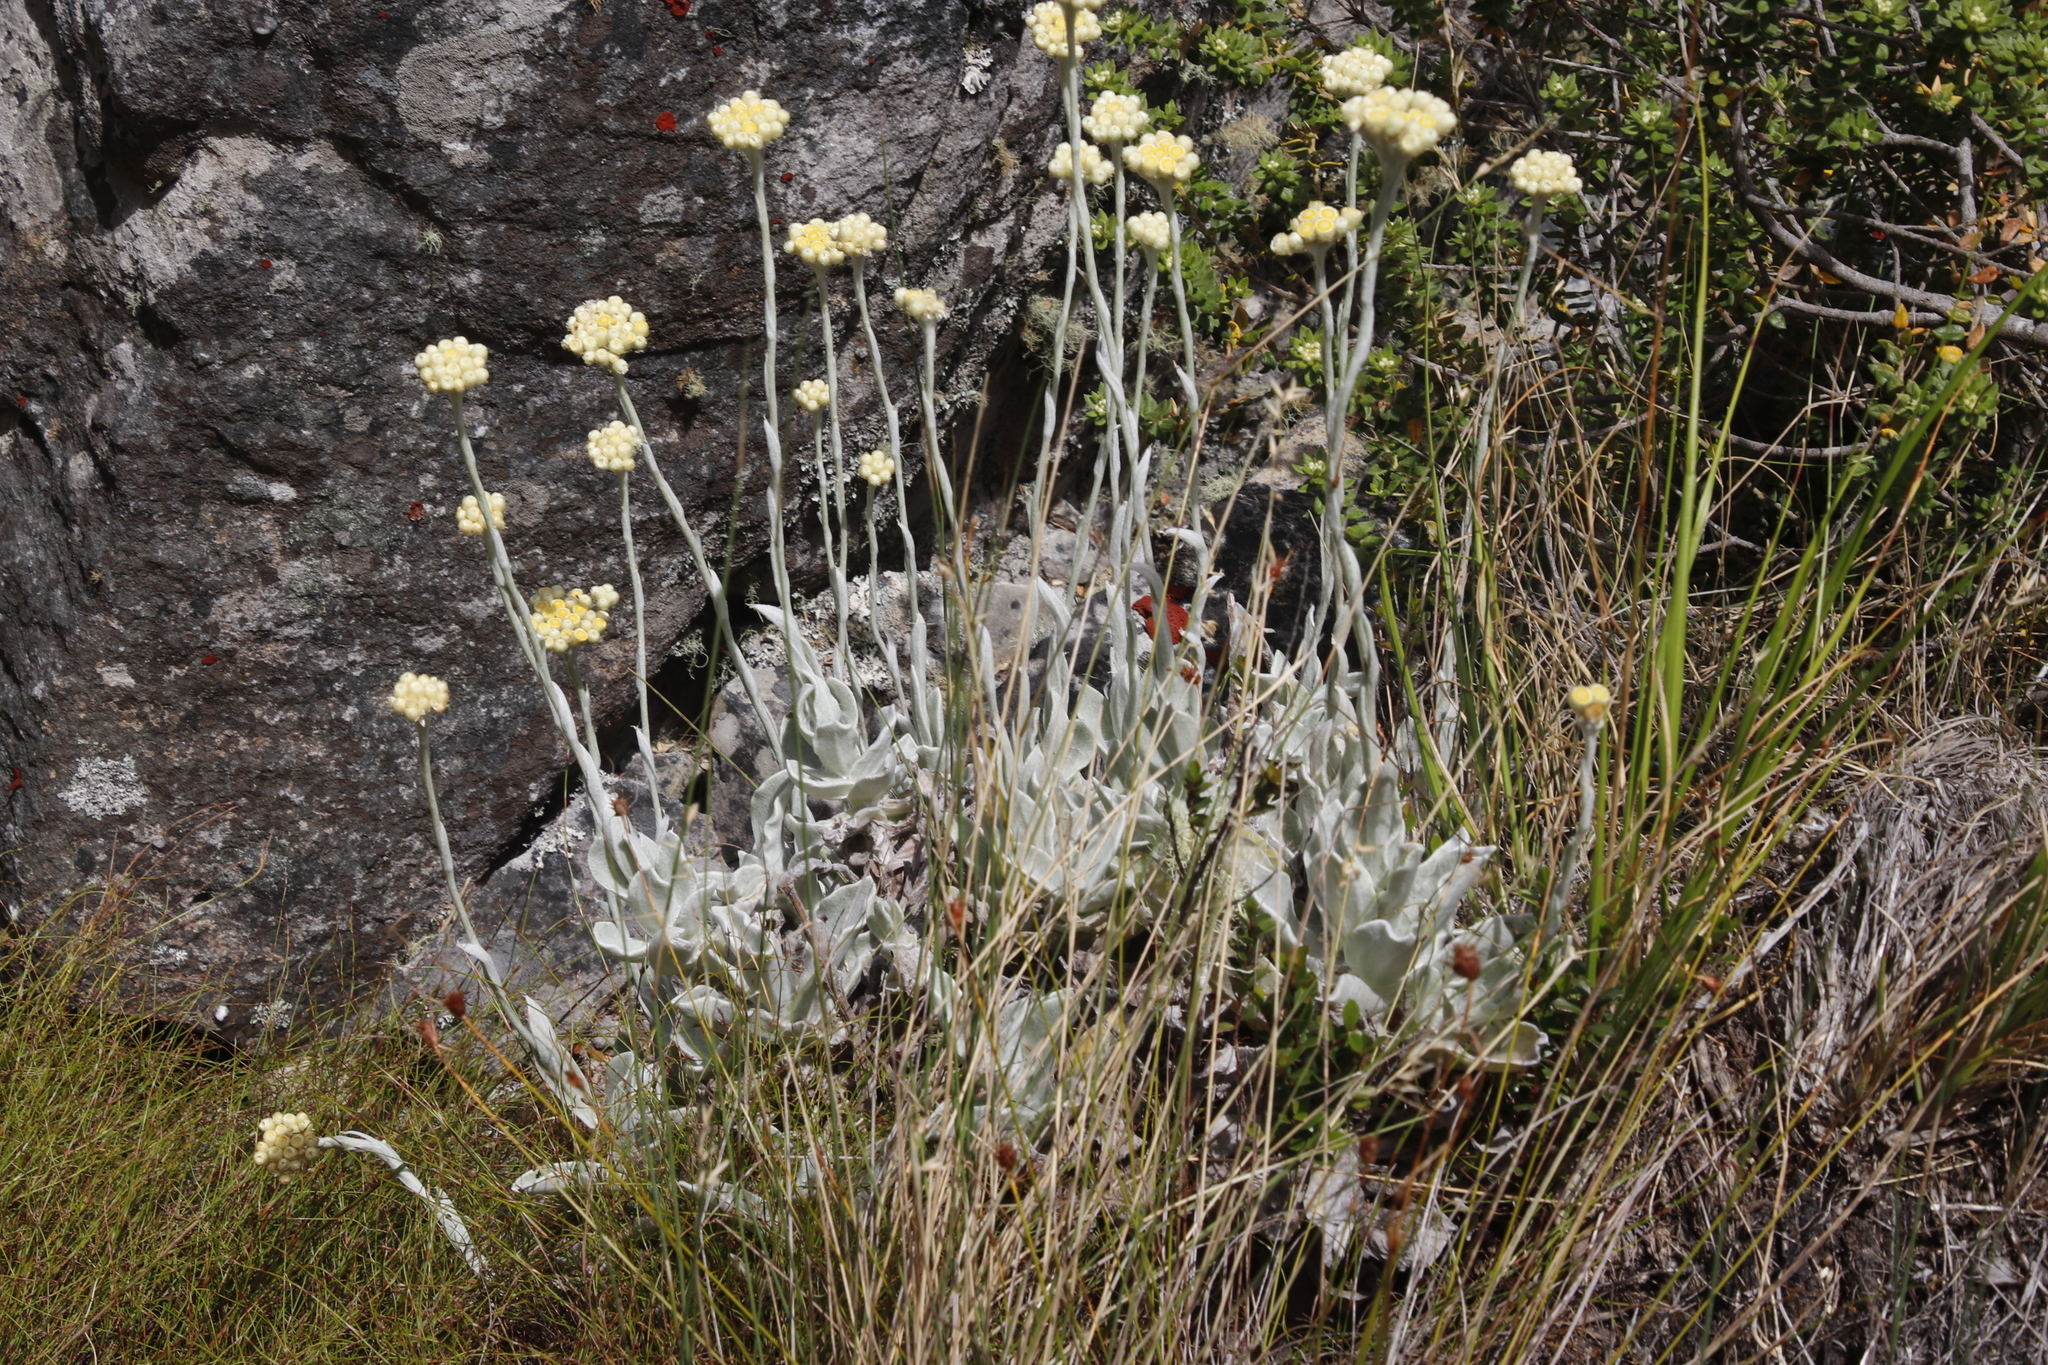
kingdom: Plantae
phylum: Tracheophyta
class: Magnoliopsida
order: Asterales
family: Asteraceae
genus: Helichrysum
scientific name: Helichrysum grandiflorum
